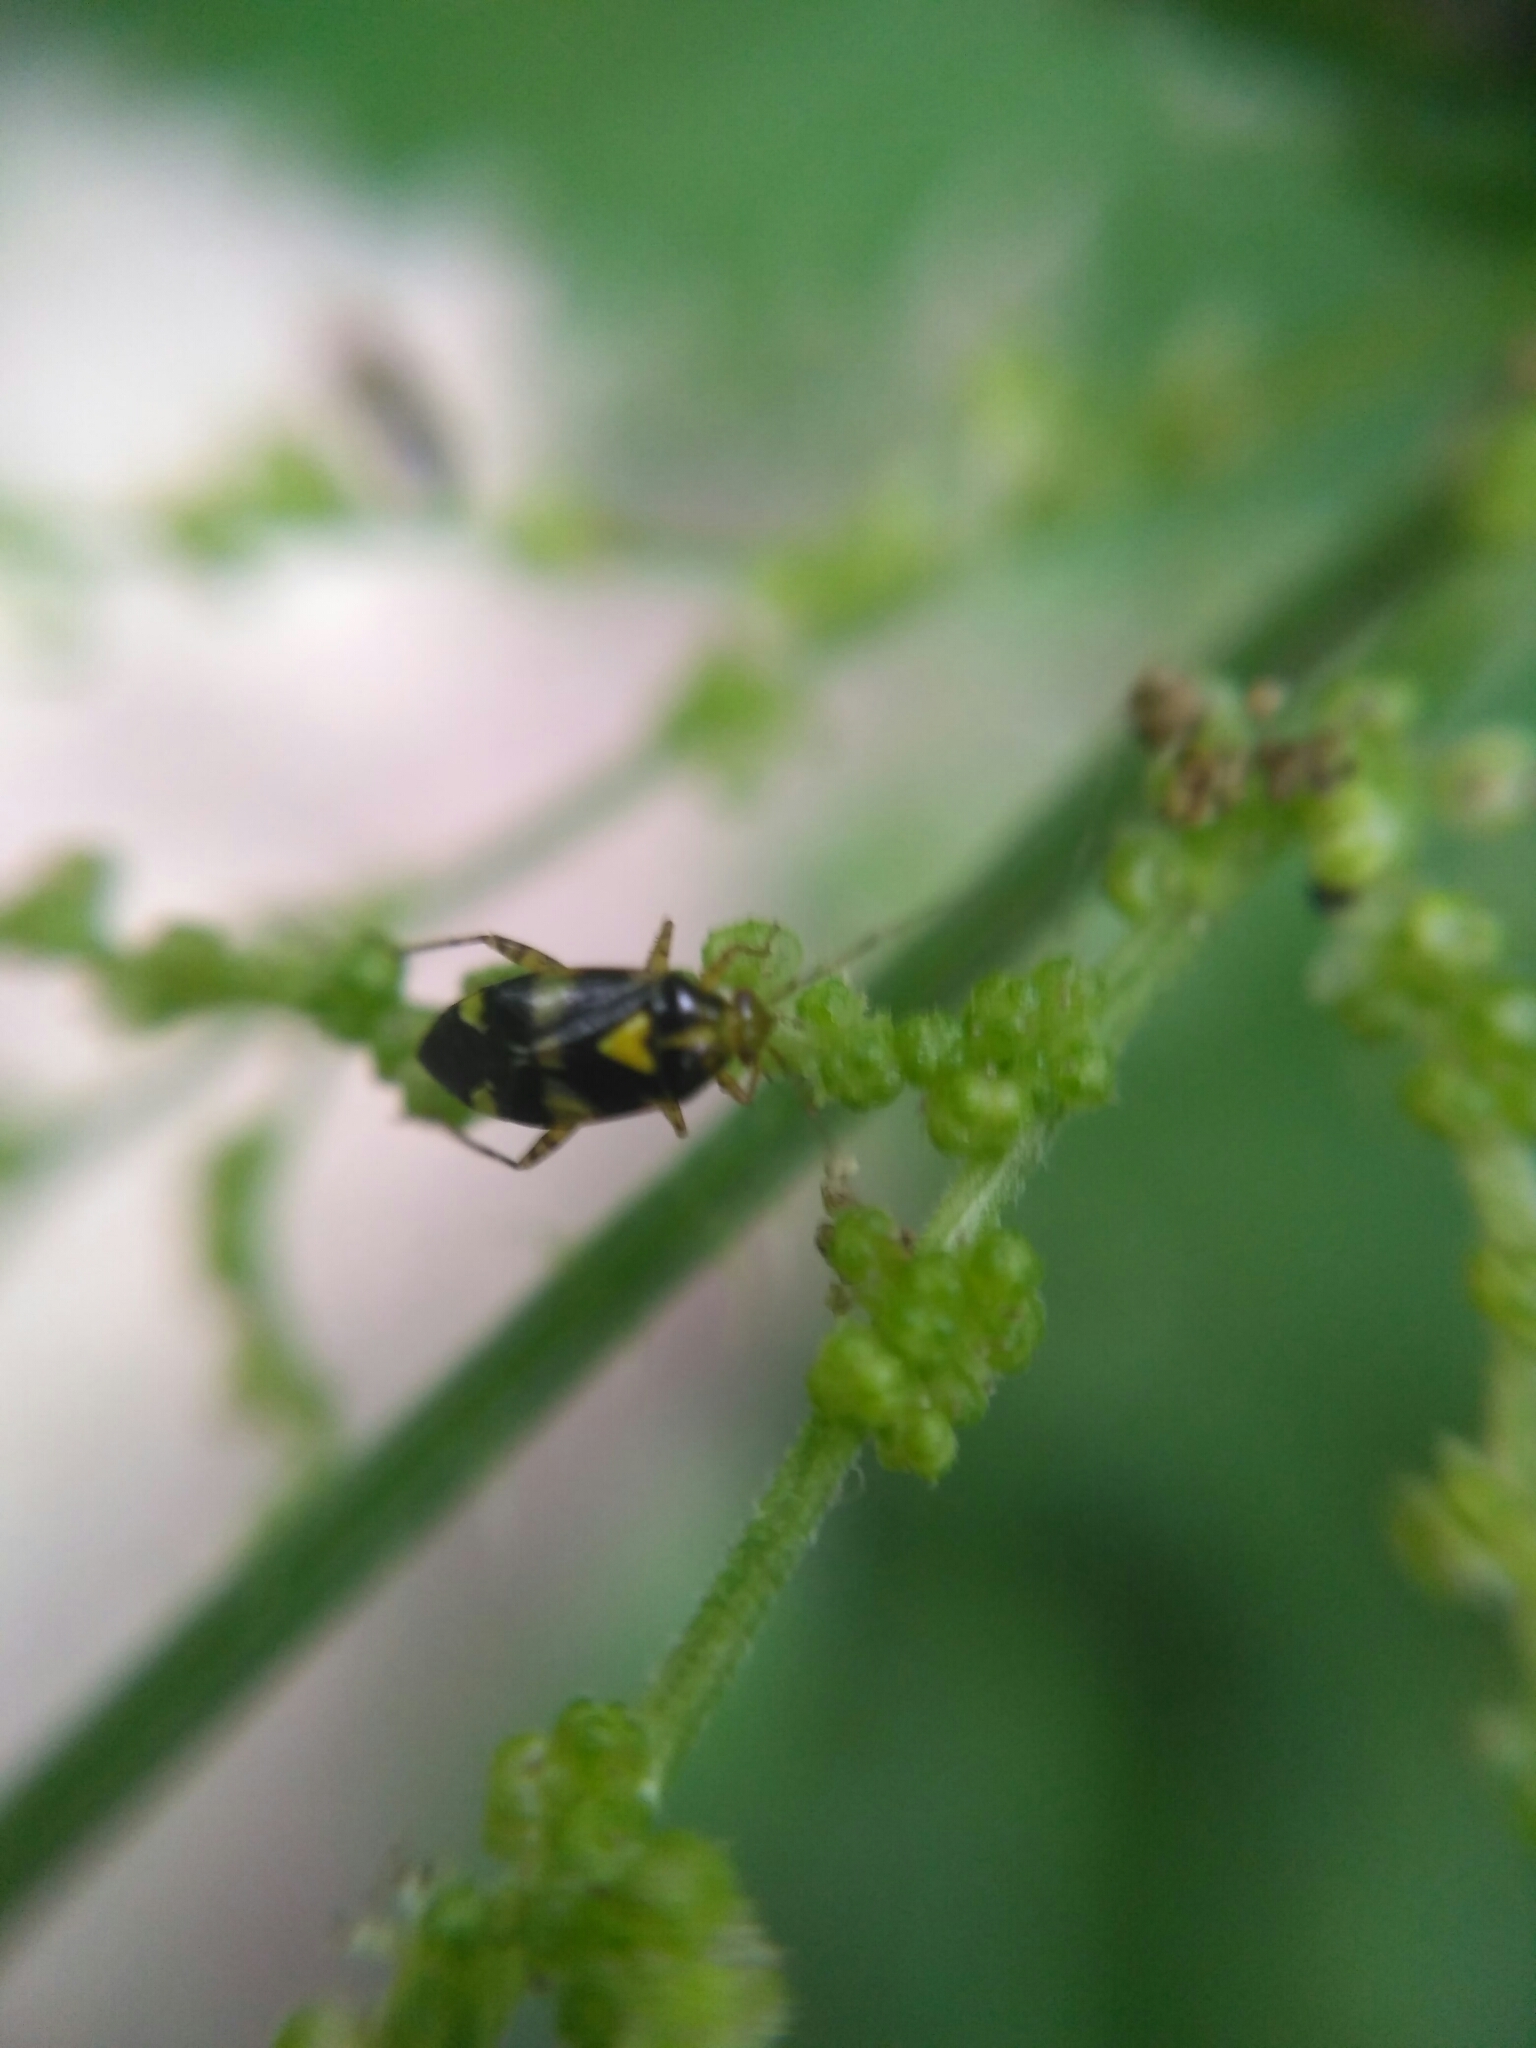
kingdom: Animalia
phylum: Arthropoda
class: Insecta
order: Hemiptera
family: Miridae
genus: Liocoris
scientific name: Liocoris tripustulatus
